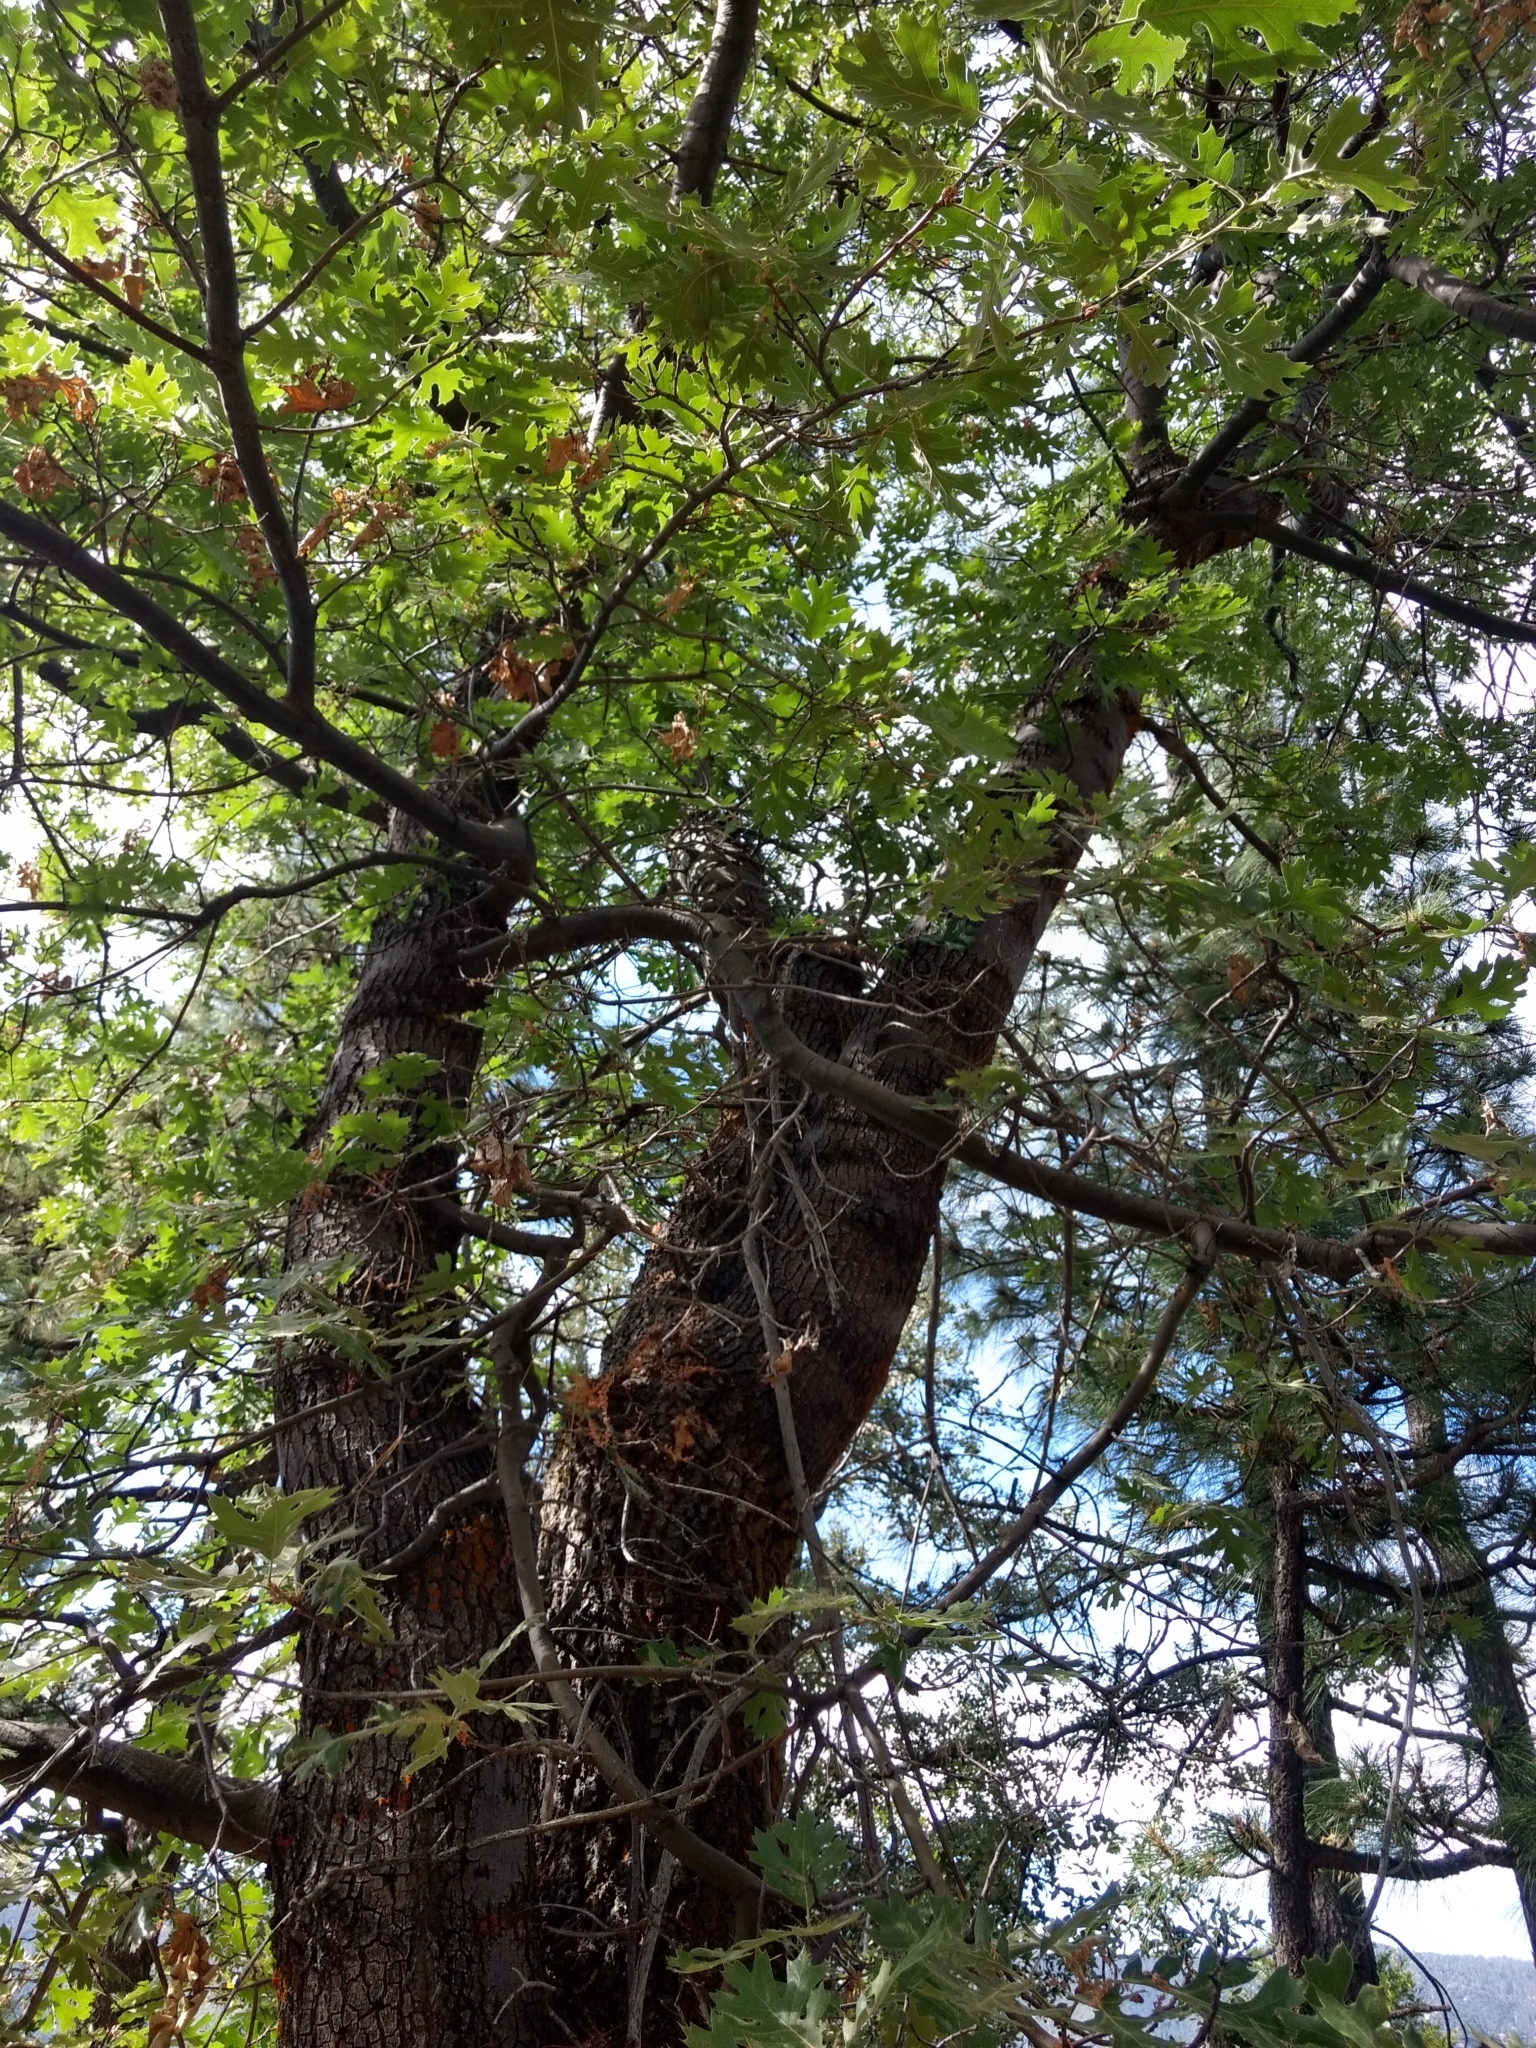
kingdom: Plantae
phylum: Tracheophyta
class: Magnoliopsida
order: Fagales
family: Fagaceae
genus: Quercus
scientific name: Quercus kelloggii
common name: California black oak
